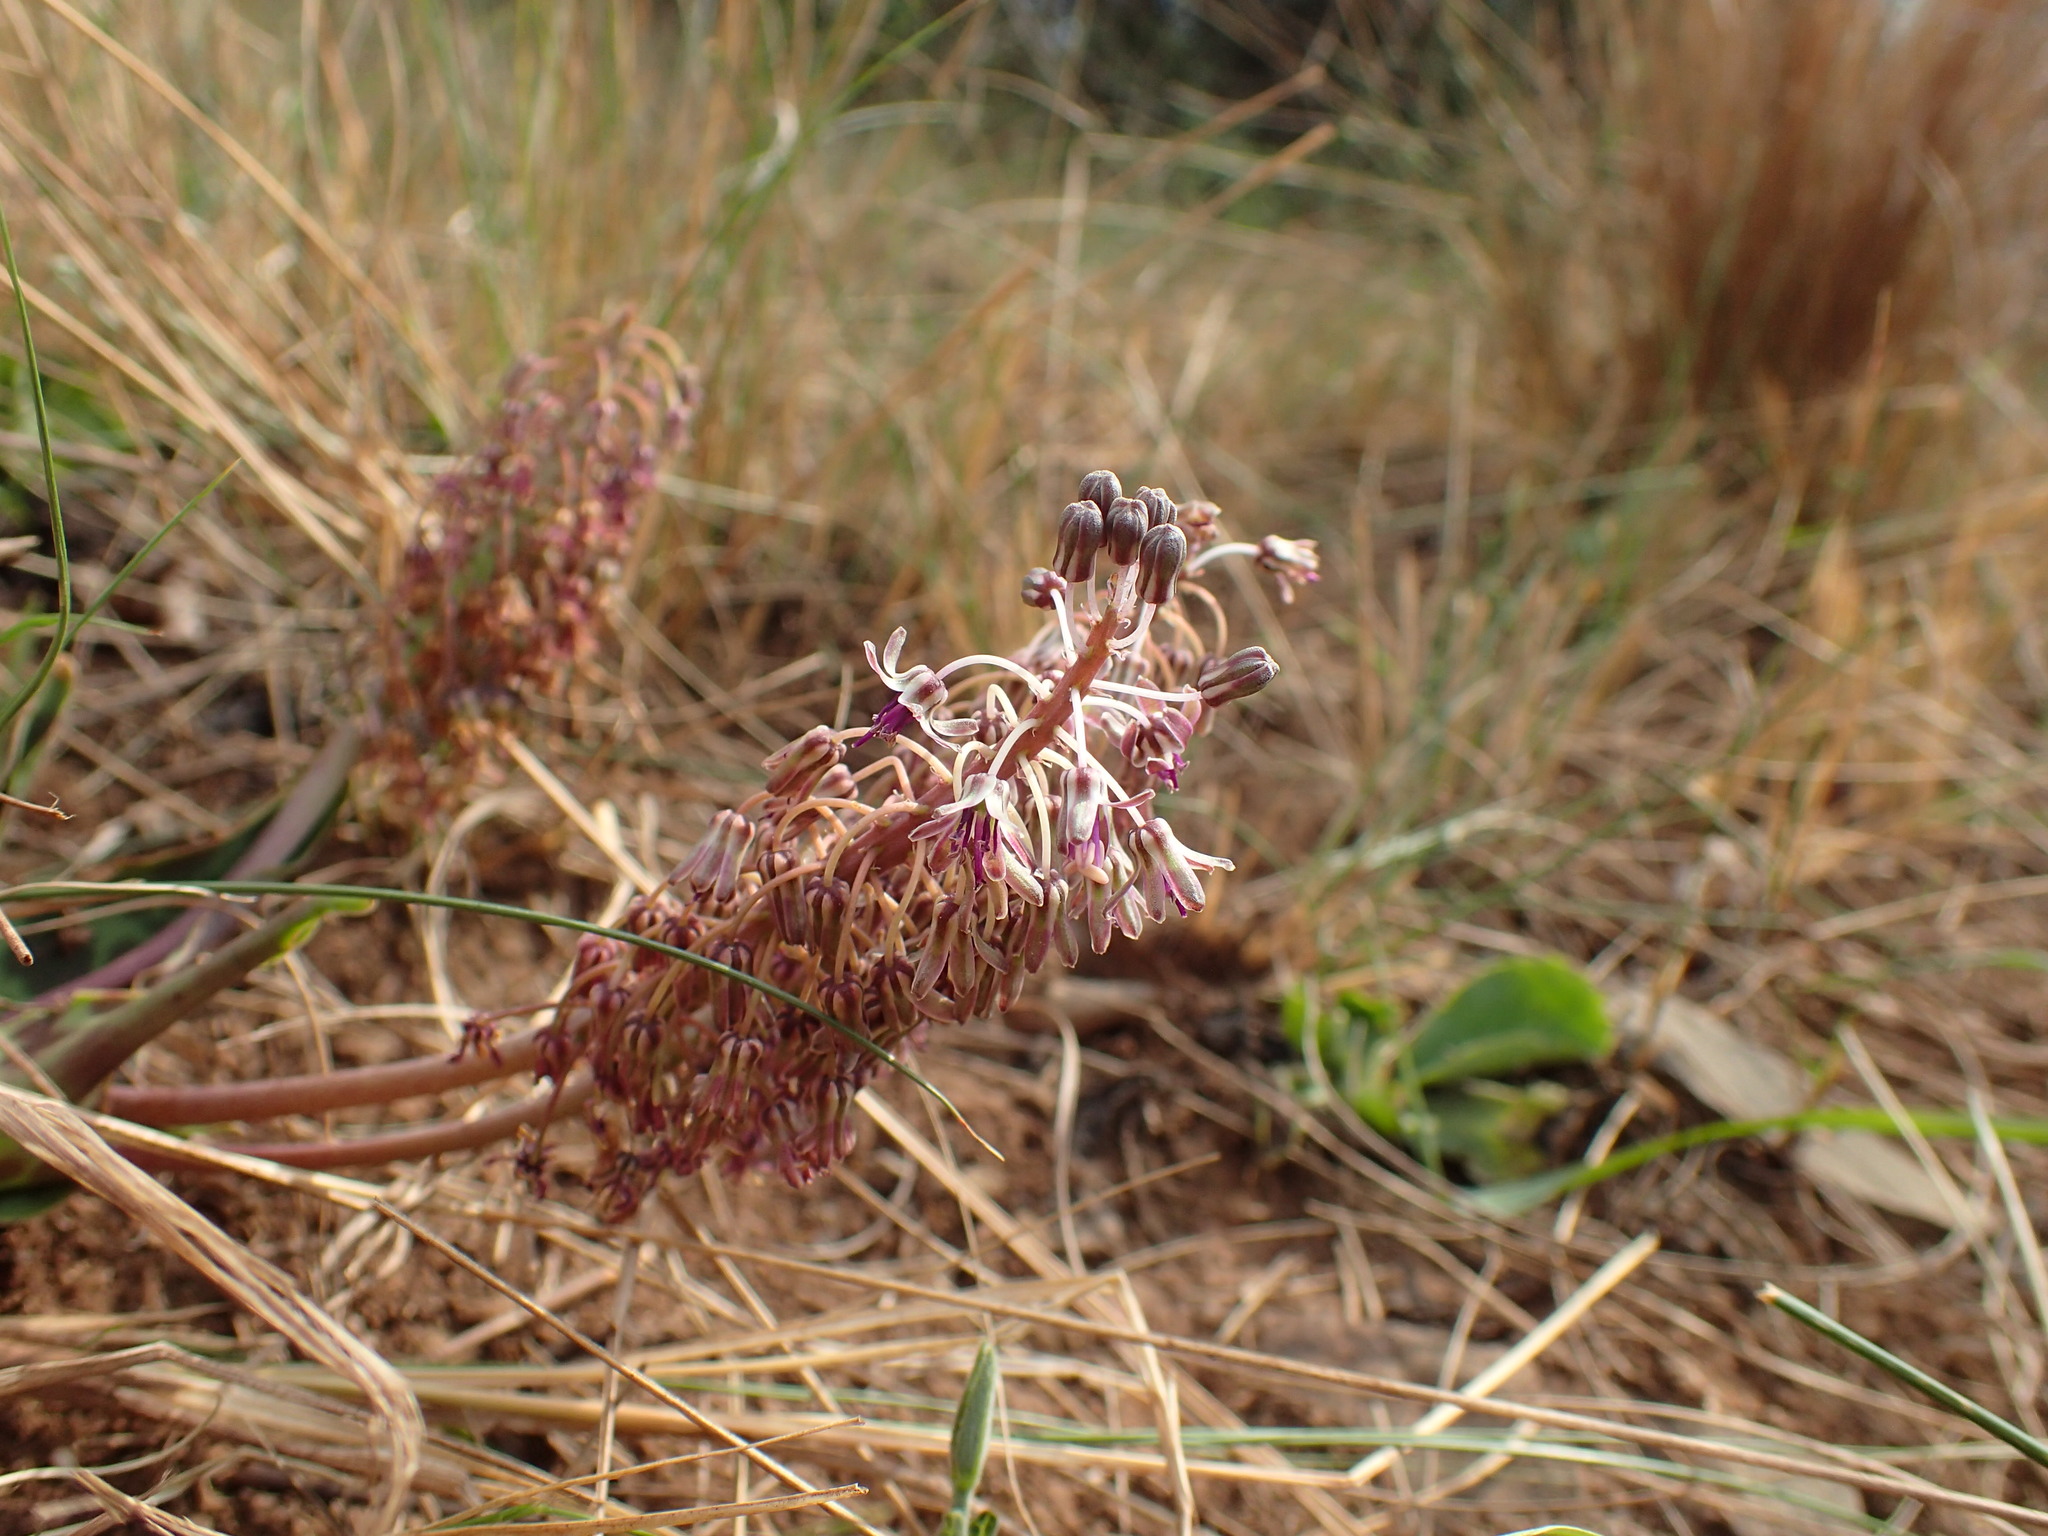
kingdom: Plantae
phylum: Tracheophyta
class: Liliopsida
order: Asparagales
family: Asparagaceae
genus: Ledebouria
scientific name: Ledebouria ovatifolia
